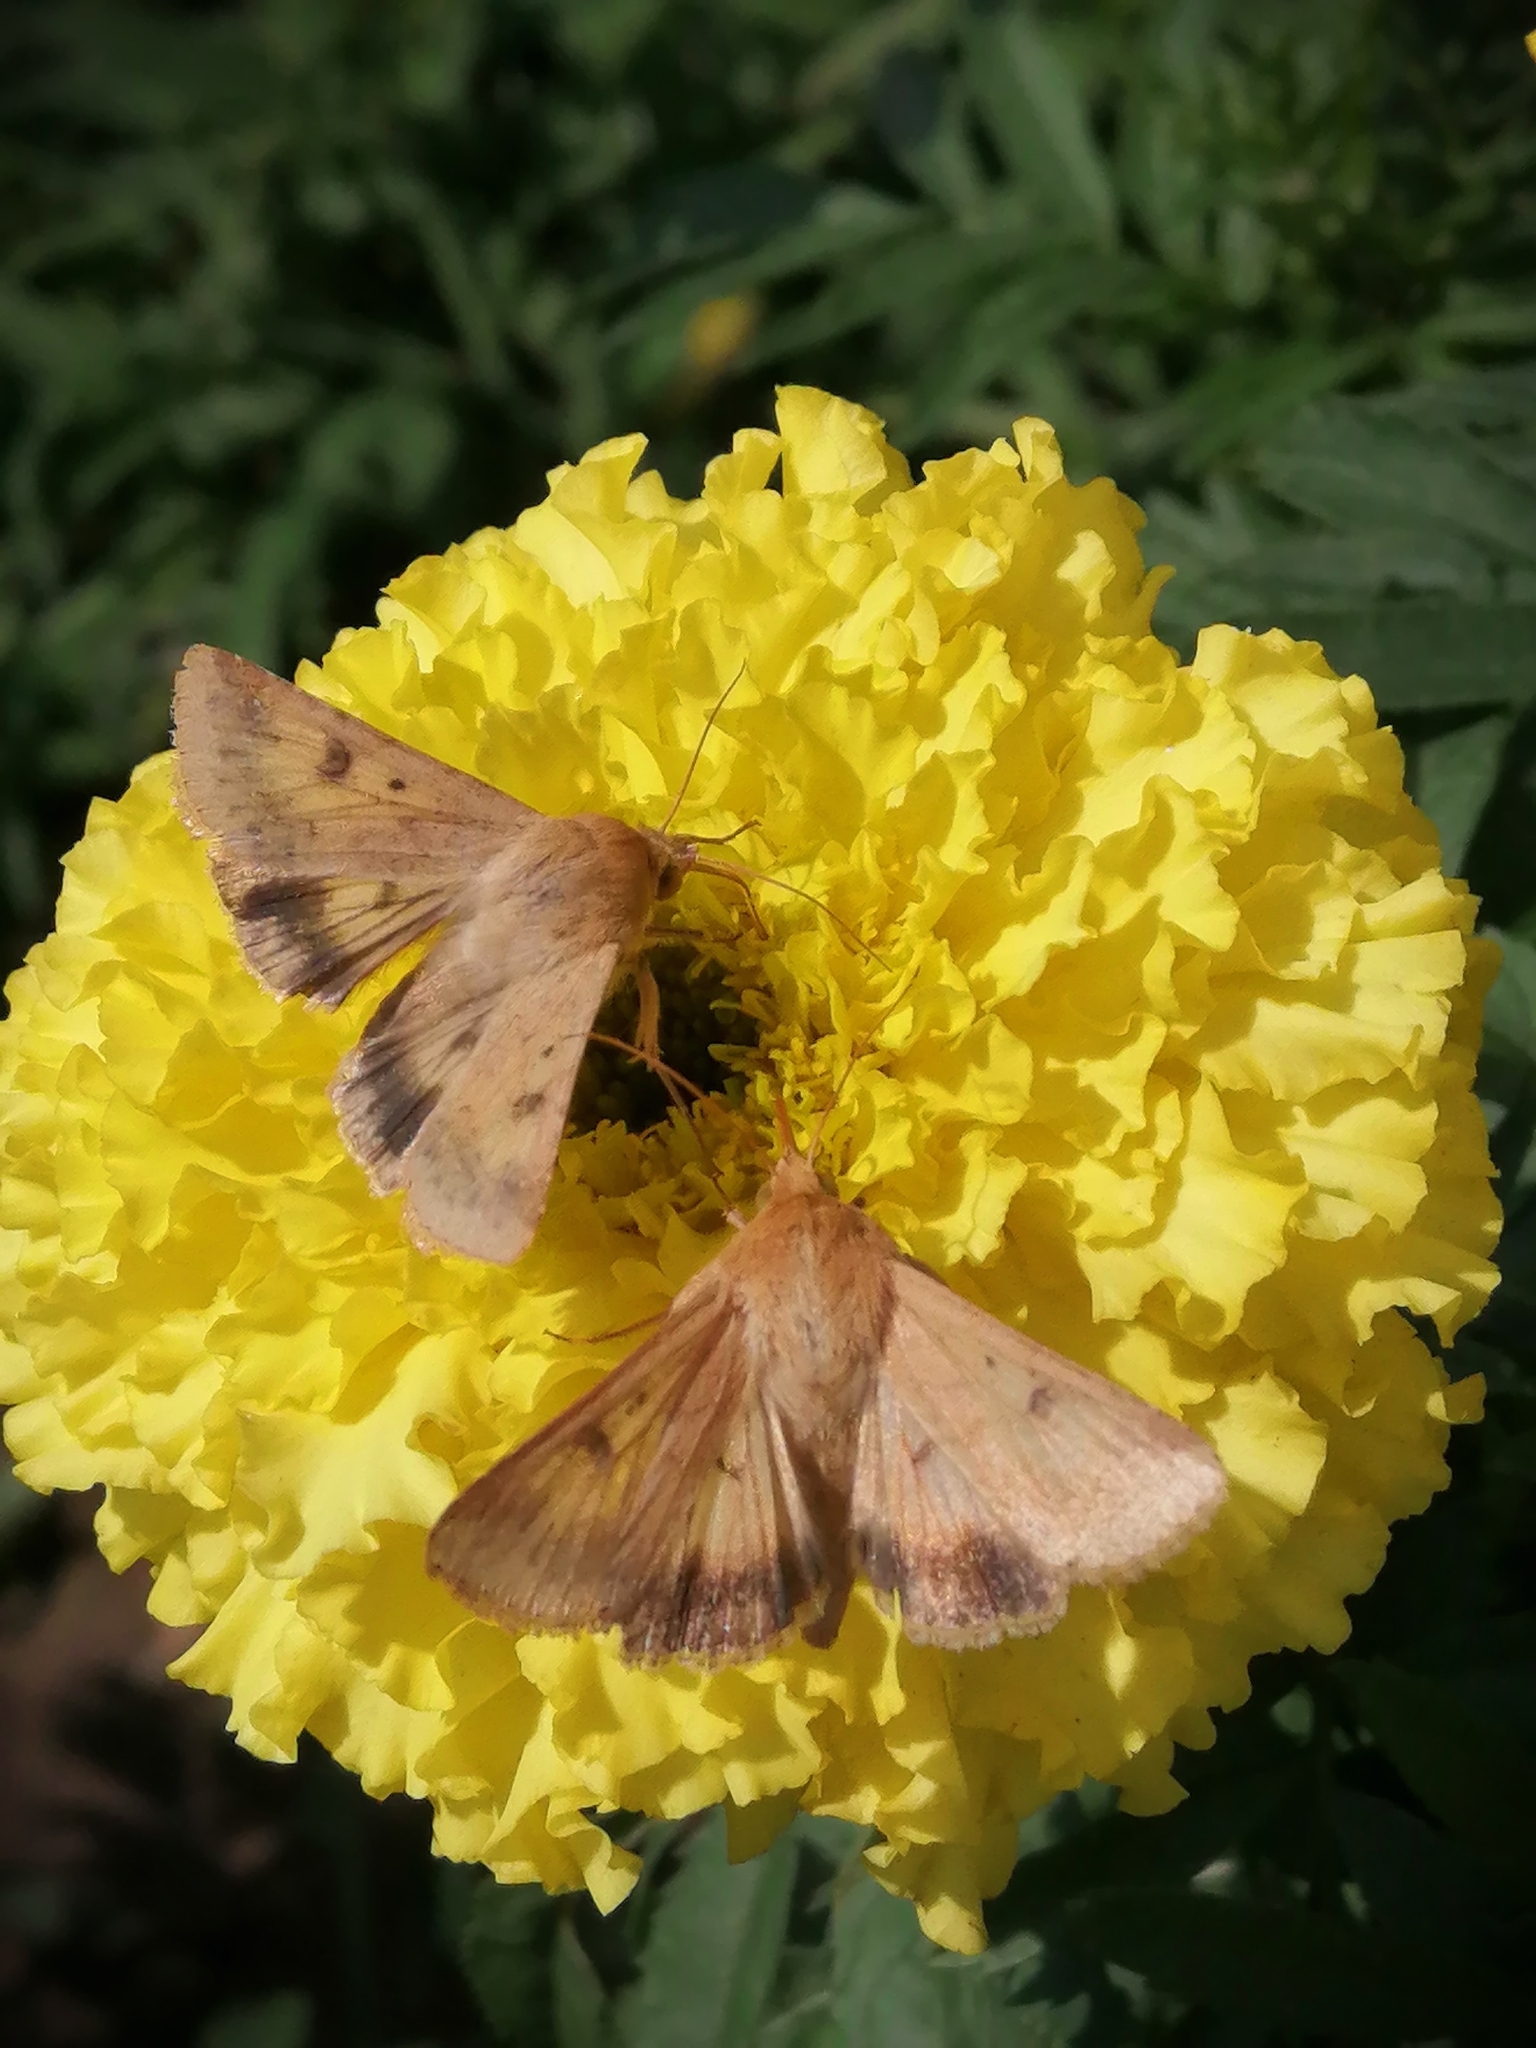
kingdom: Animalia
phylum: Arthropoda
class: Insecta
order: Lepidoptera
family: Noctuidae
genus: Helicoverpa
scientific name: Helicoverpa armigera
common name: Cotton bollworm
